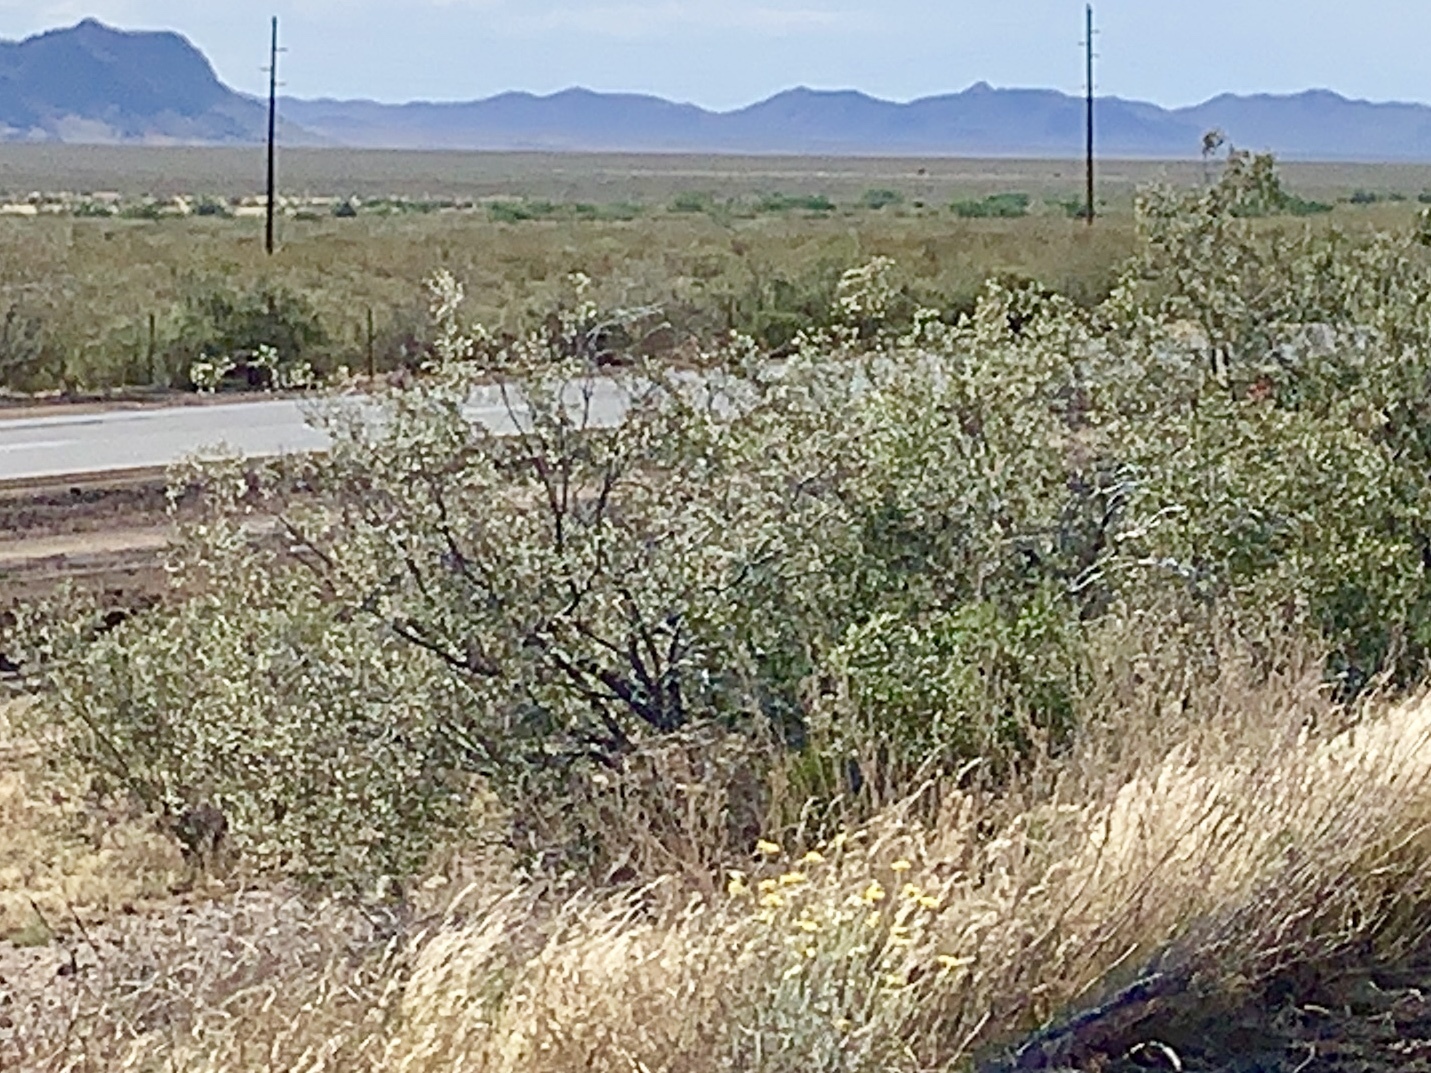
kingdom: Plantae
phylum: Tracheophyta
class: Magnoliopsida
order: Zygophyllales
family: Zygophyllaceae
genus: Larrea
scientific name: Larrea tridentata
